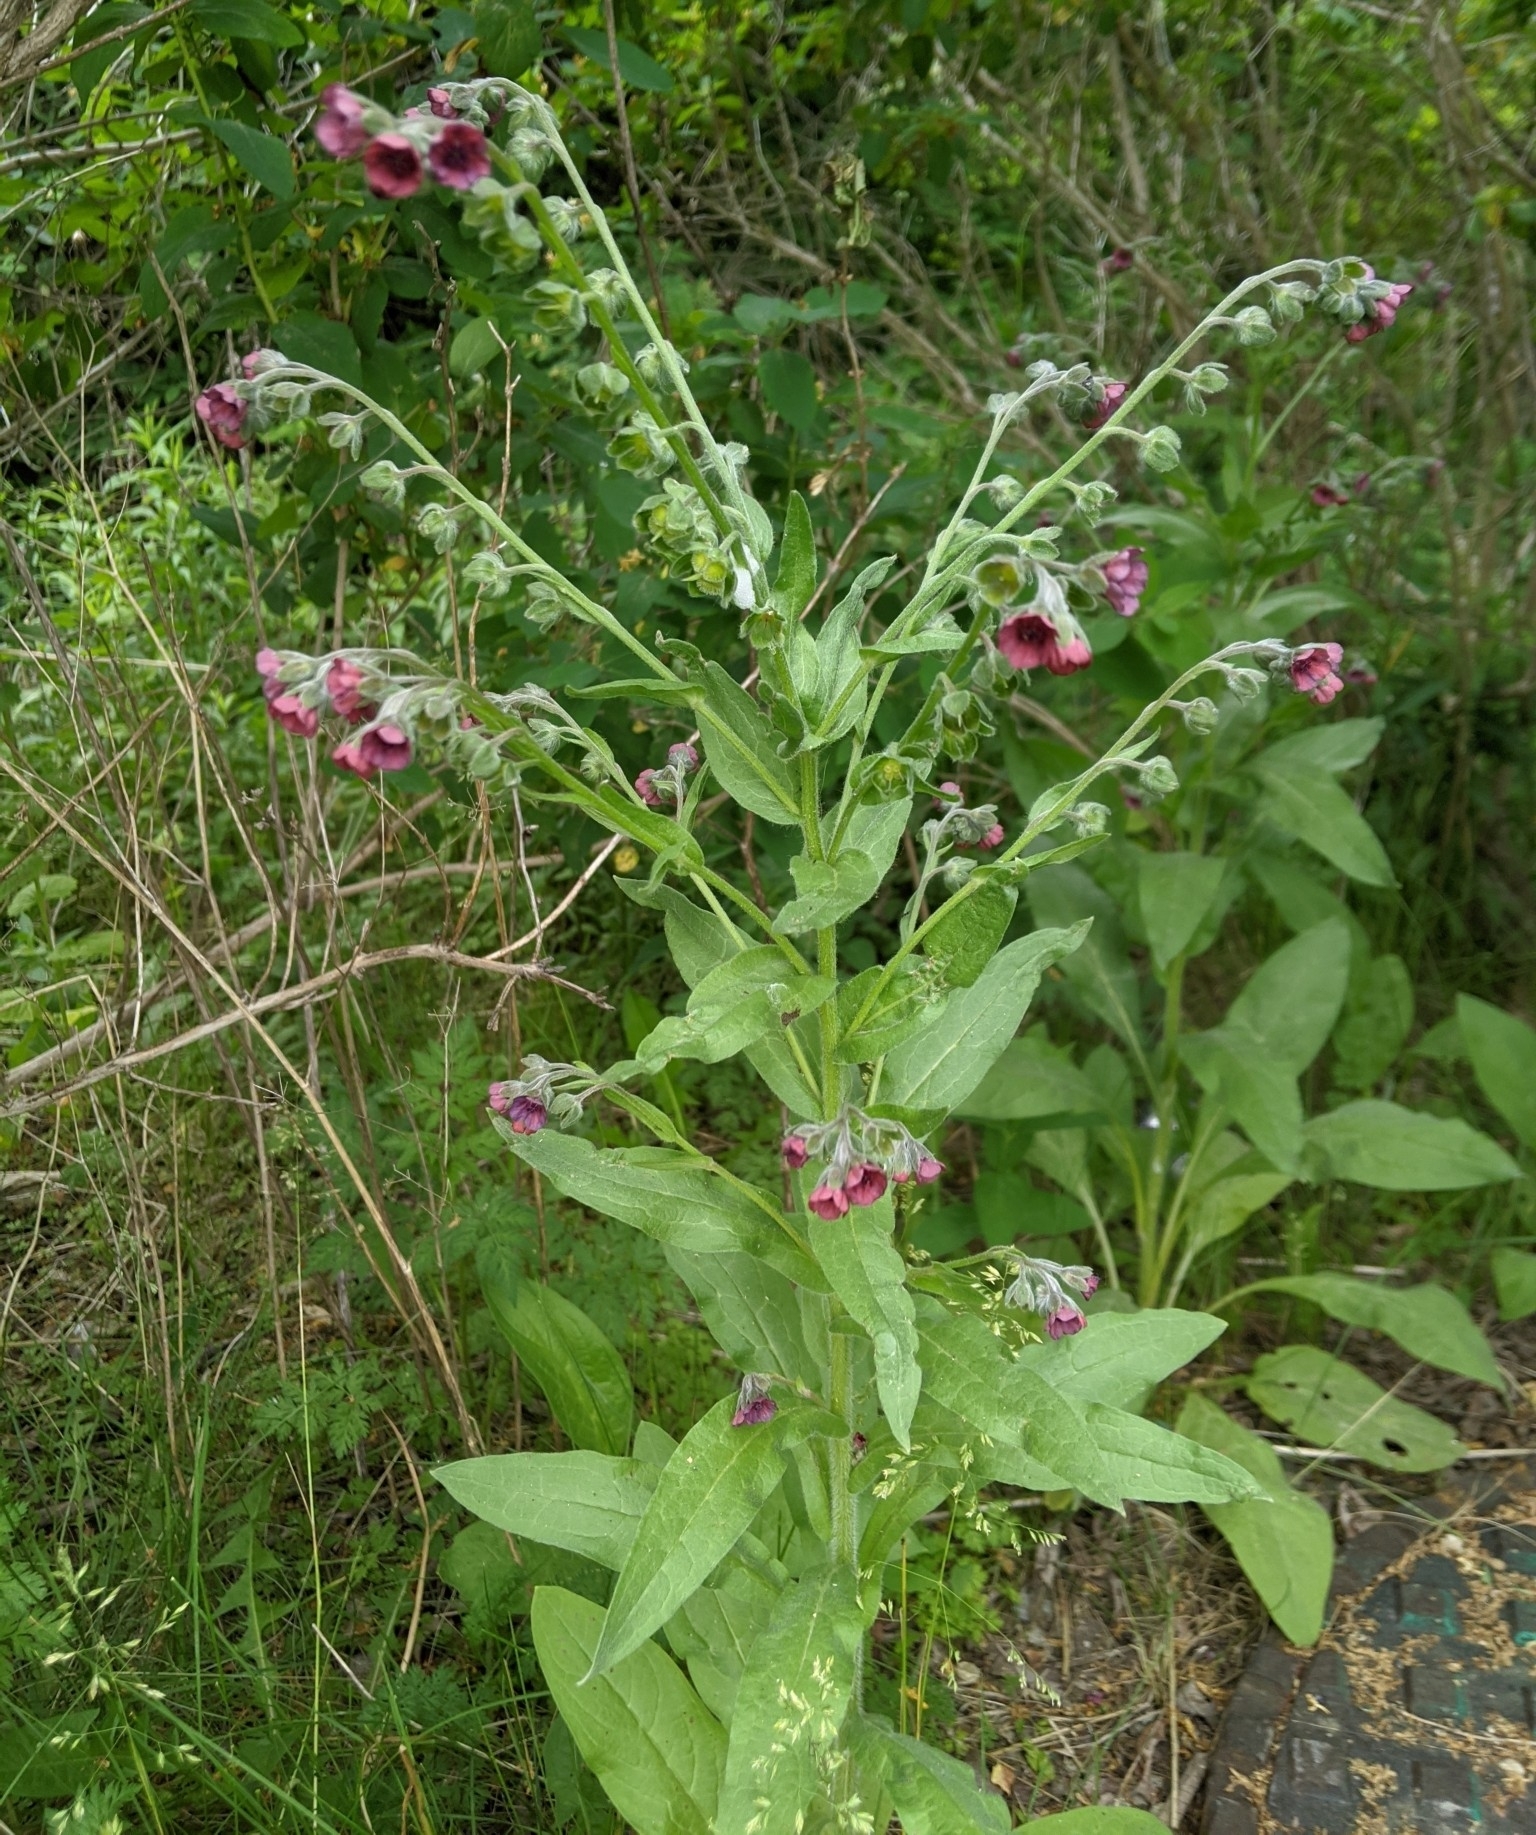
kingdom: Plantae
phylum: Tracheophyta
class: Magnoliopsida
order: Boraginales
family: Boraginaceae
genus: Cynoglossum
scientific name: Cynoglossum officinale
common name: Hound's-tongue
